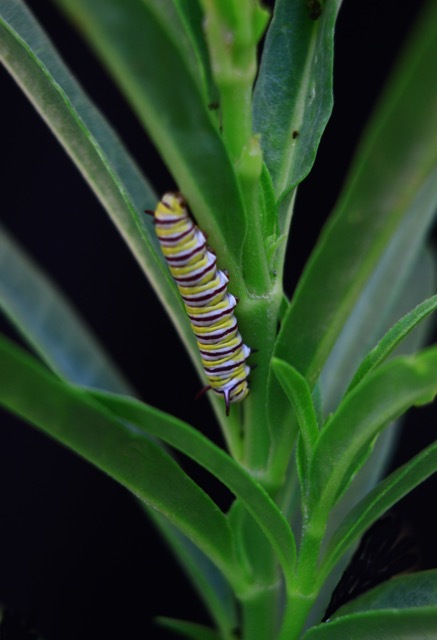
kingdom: Animalia
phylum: Arthropoda
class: Insecta
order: Lepidoptera
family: Nymphalidae
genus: Danaus
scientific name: Danaus plexippus
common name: Monarch
